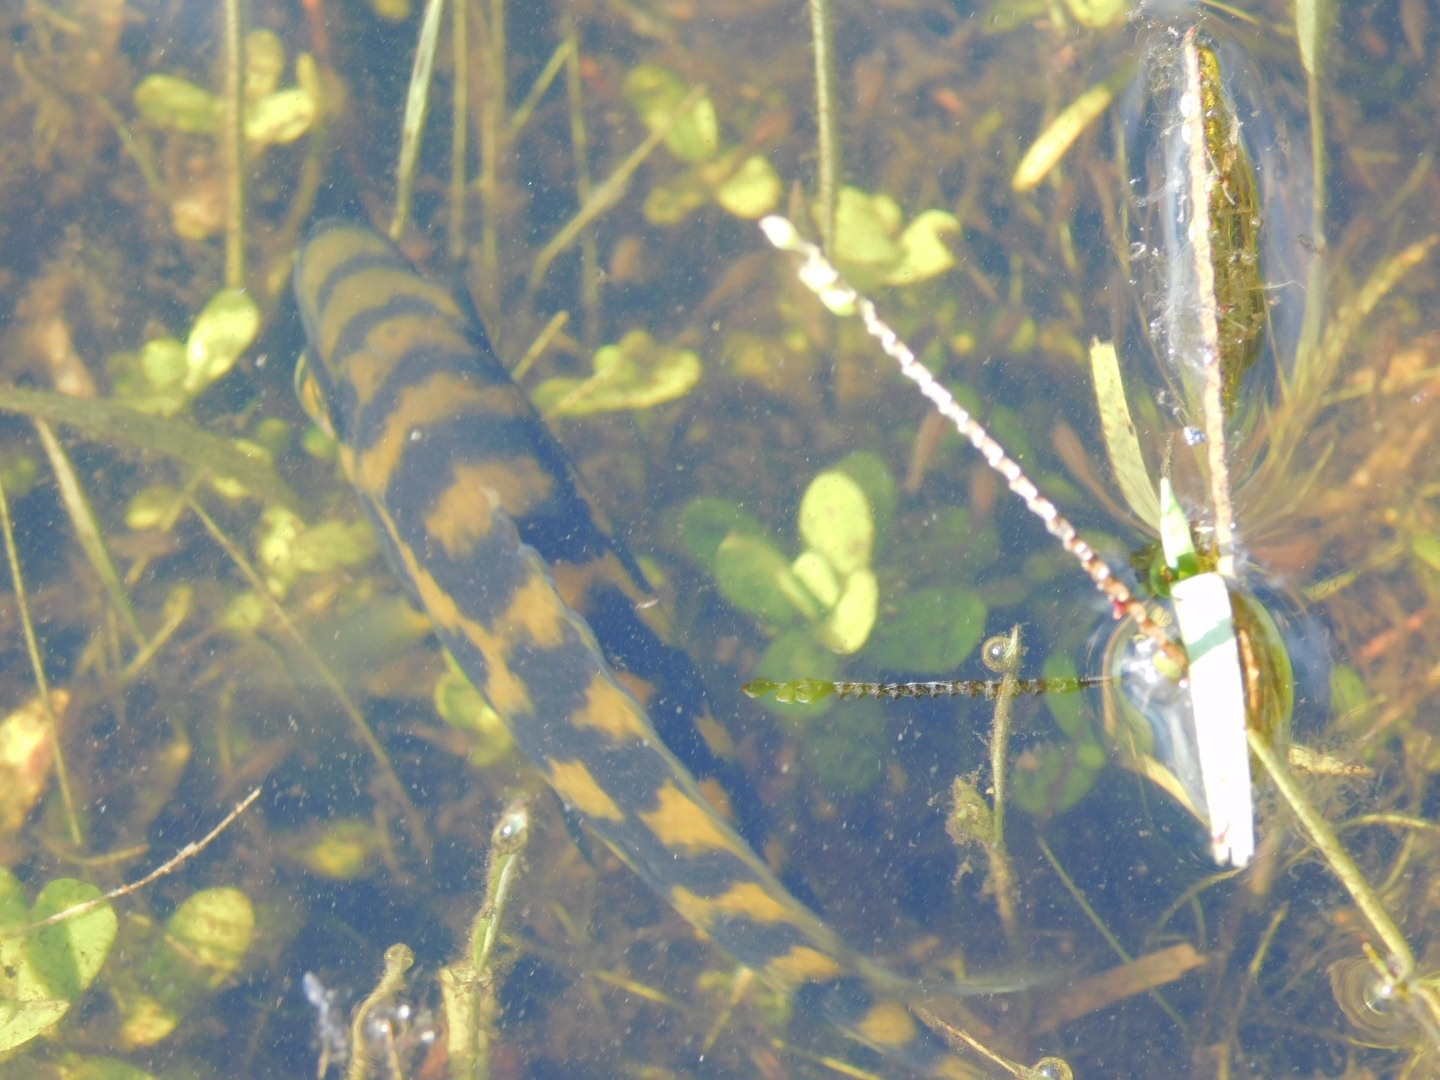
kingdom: Animalia
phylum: Chordata
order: Perciformes
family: Cichlidae
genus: Australoheros
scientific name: Australoheros facetus
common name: Chameleon cichlid
